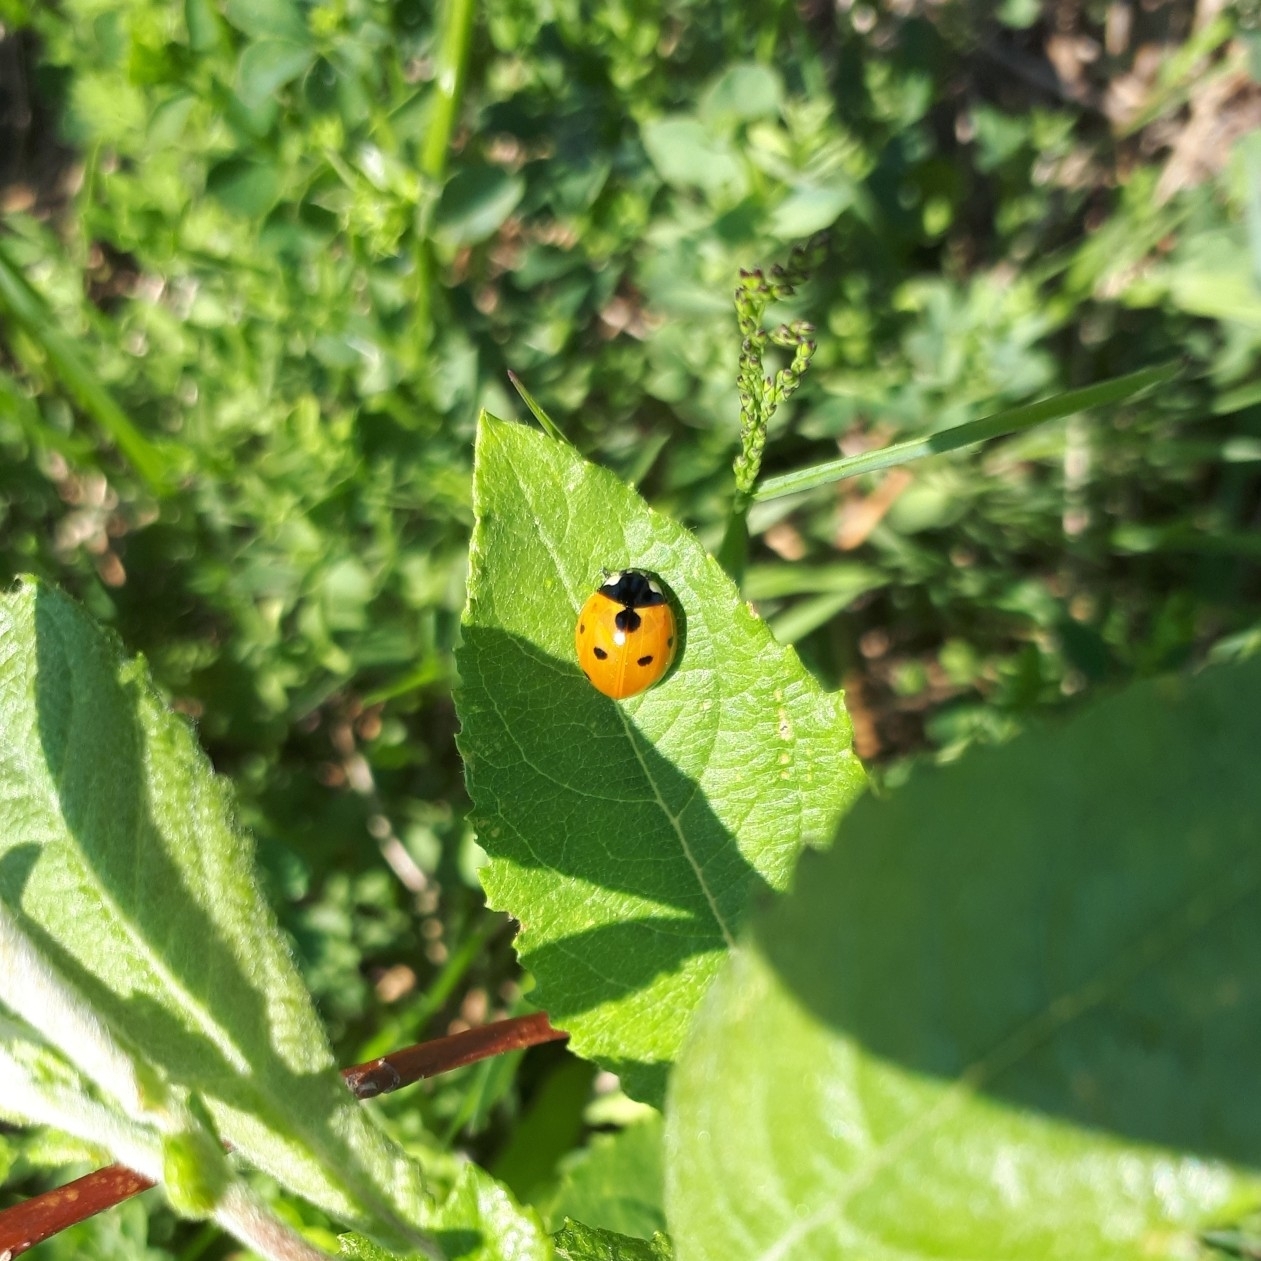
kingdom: Animalia
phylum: Arthropoda
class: Insecta
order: Coleoptera
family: Coccinellidae
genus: Coccinella
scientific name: Coccinella septempunctata
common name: Sevenspotted lady beetle
